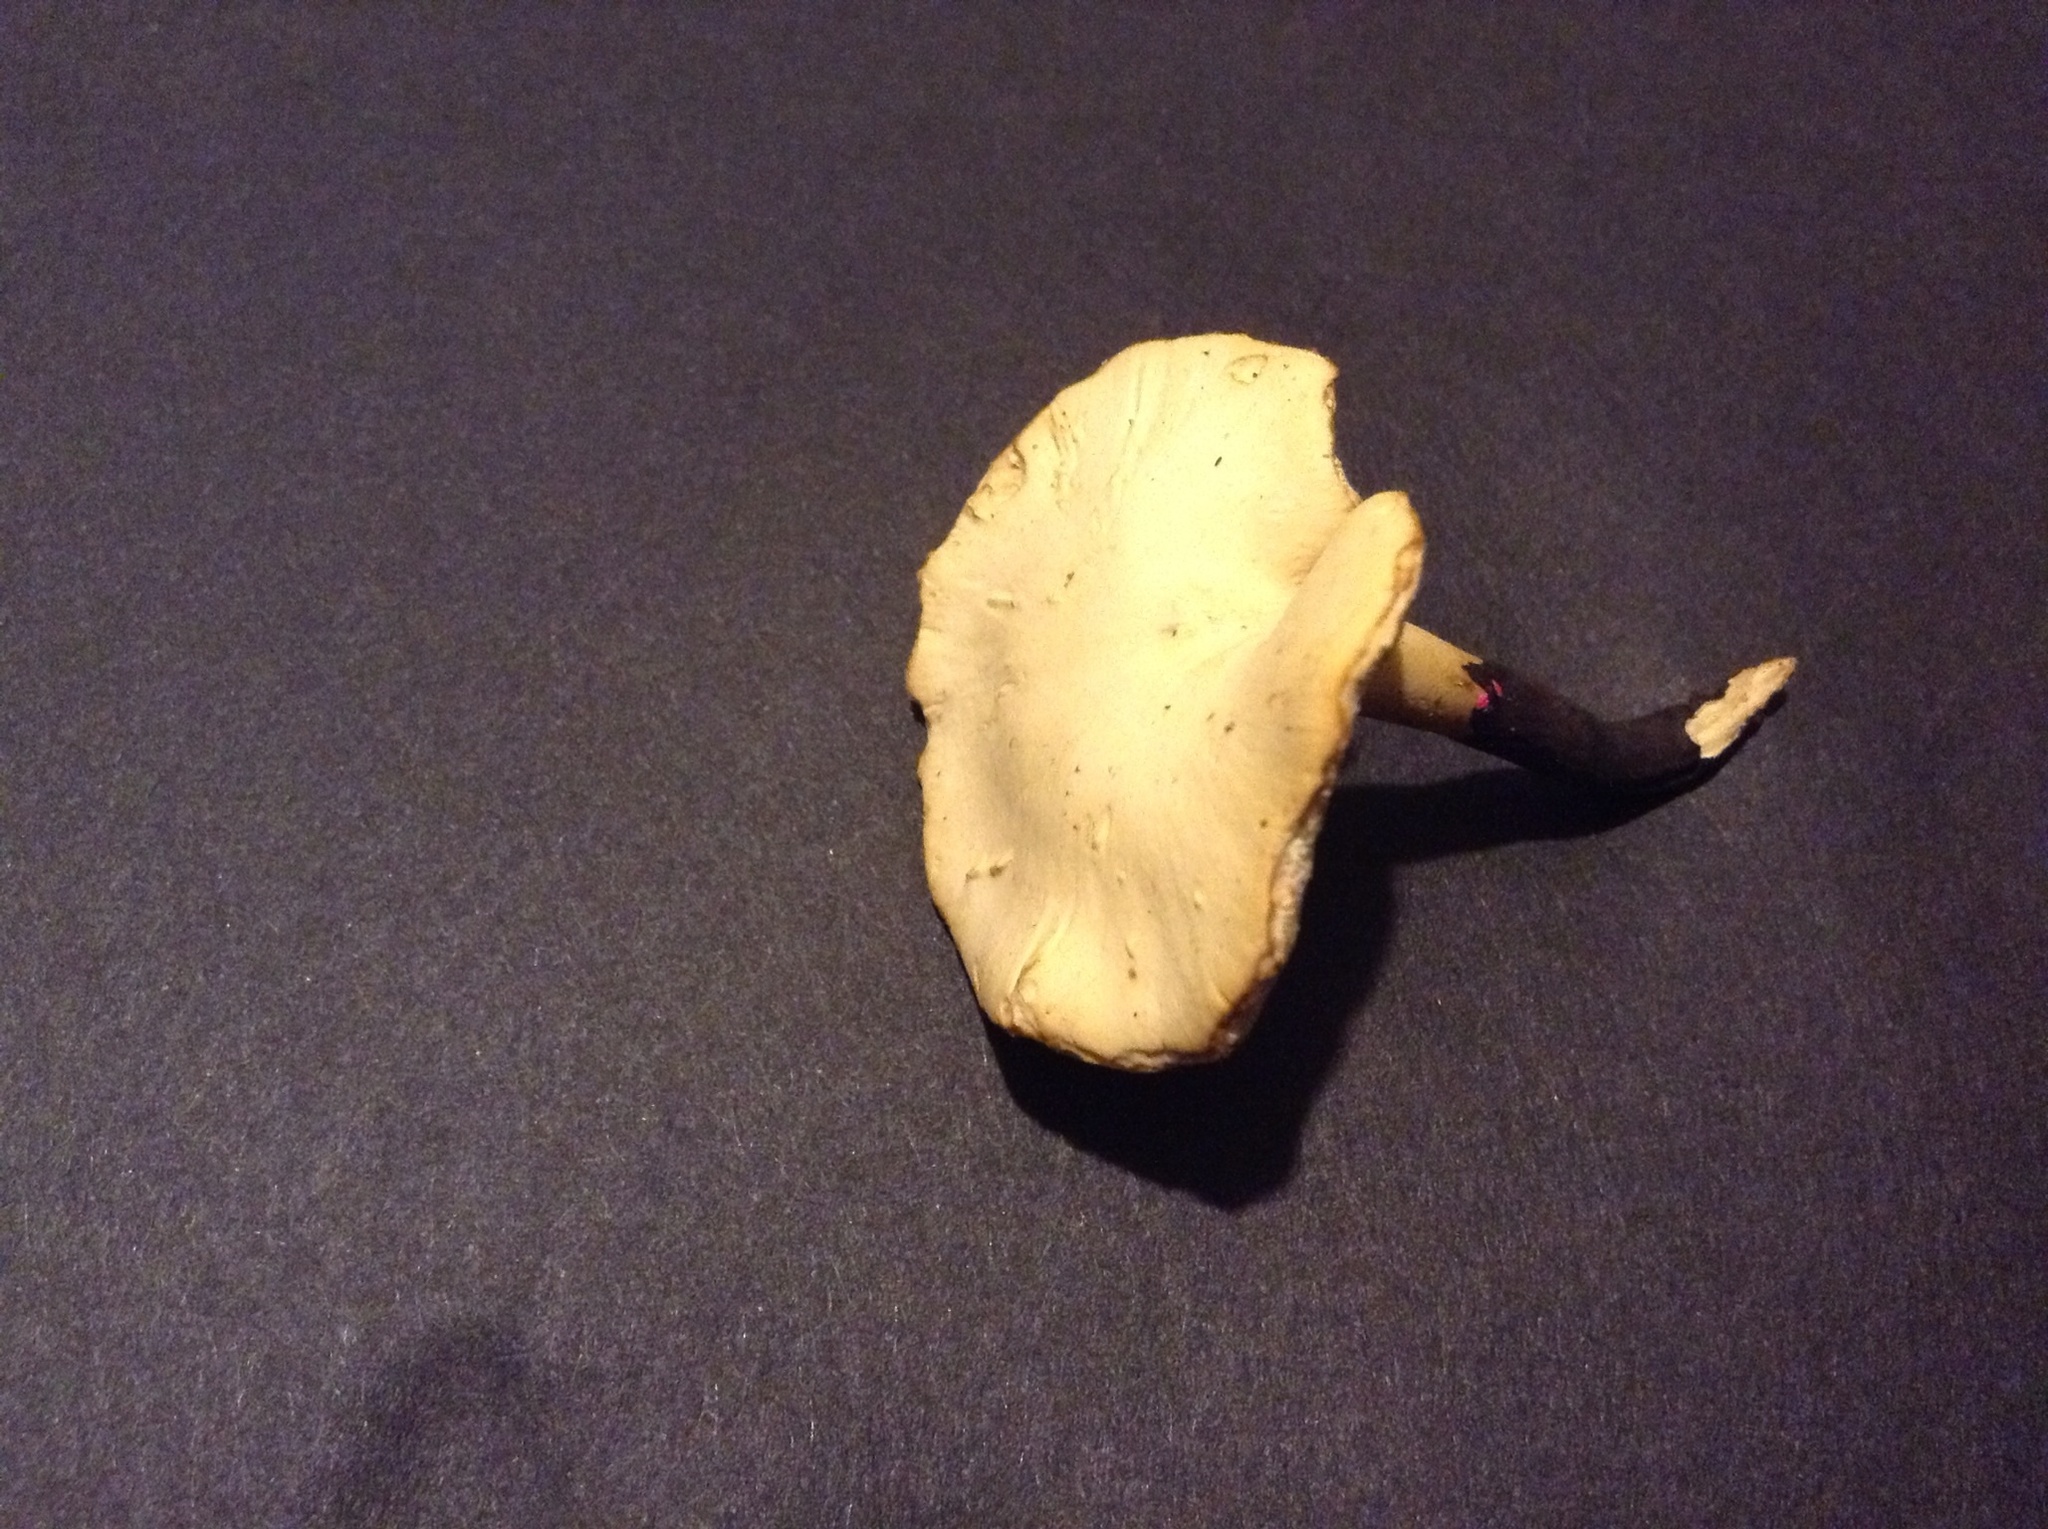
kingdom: Fungi
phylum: Basidiomycota
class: Agaricomycetes
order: Polyporales
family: Polyporaceae
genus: Cerioporus
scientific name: Cerioporus leptocephalus
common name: Blackfoot polypore
